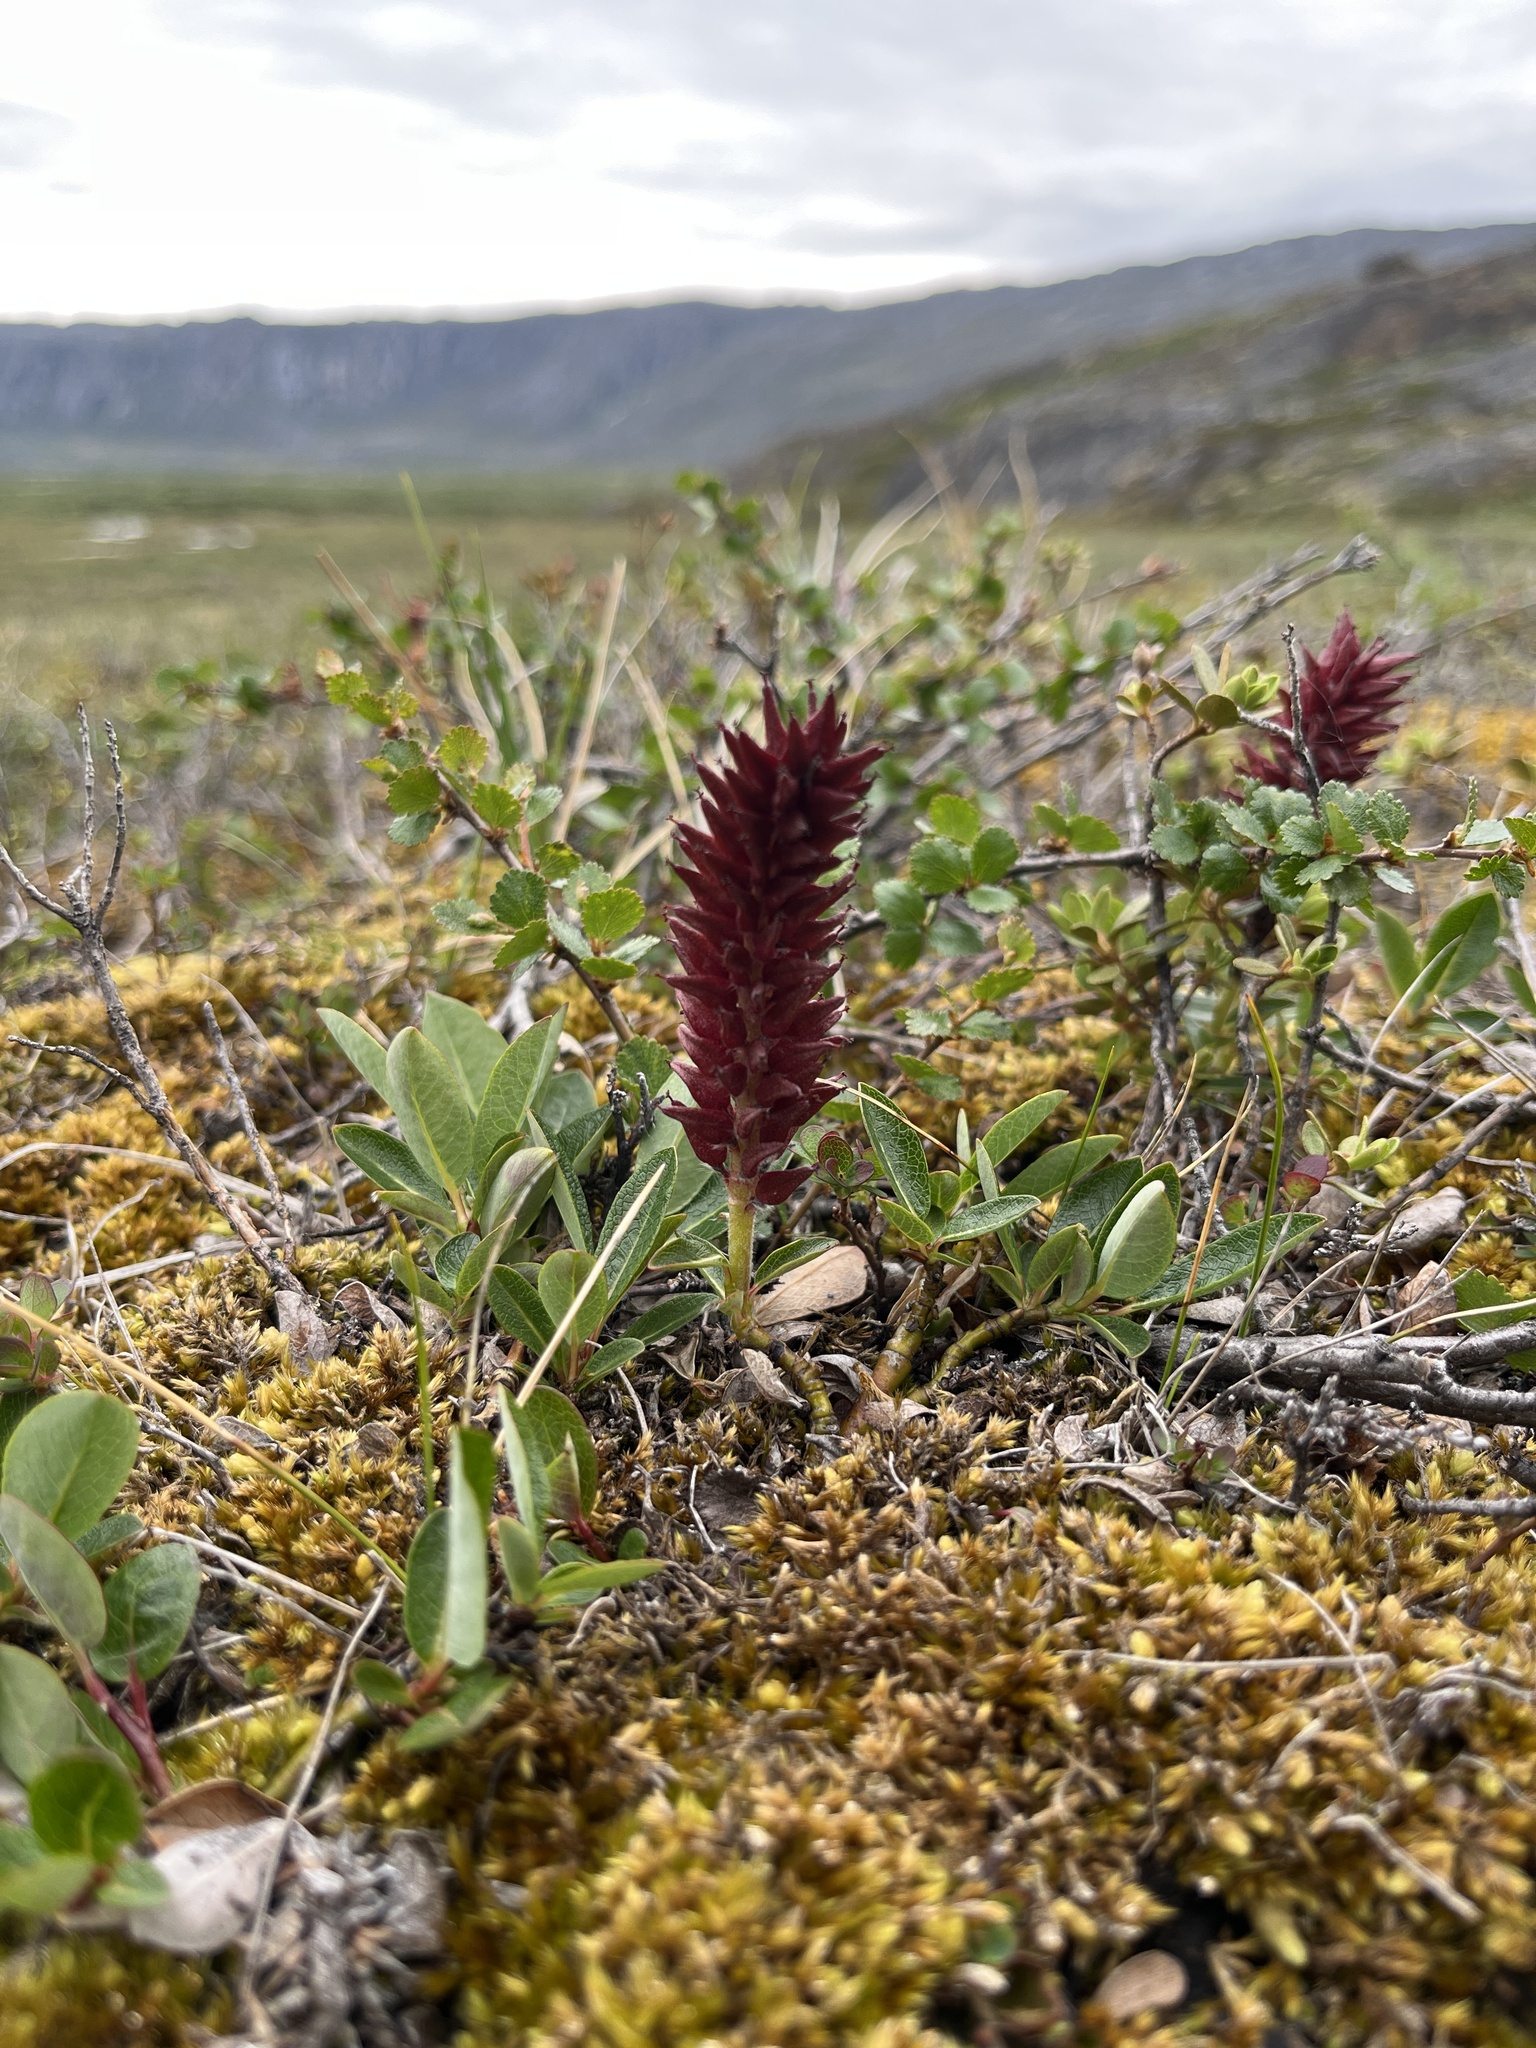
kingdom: Plantae
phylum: Tracheophyta
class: Magnoliopsida
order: Malpighiales
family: Salicaceae
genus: Salix
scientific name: Salix arctophila
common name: Greenland willow
